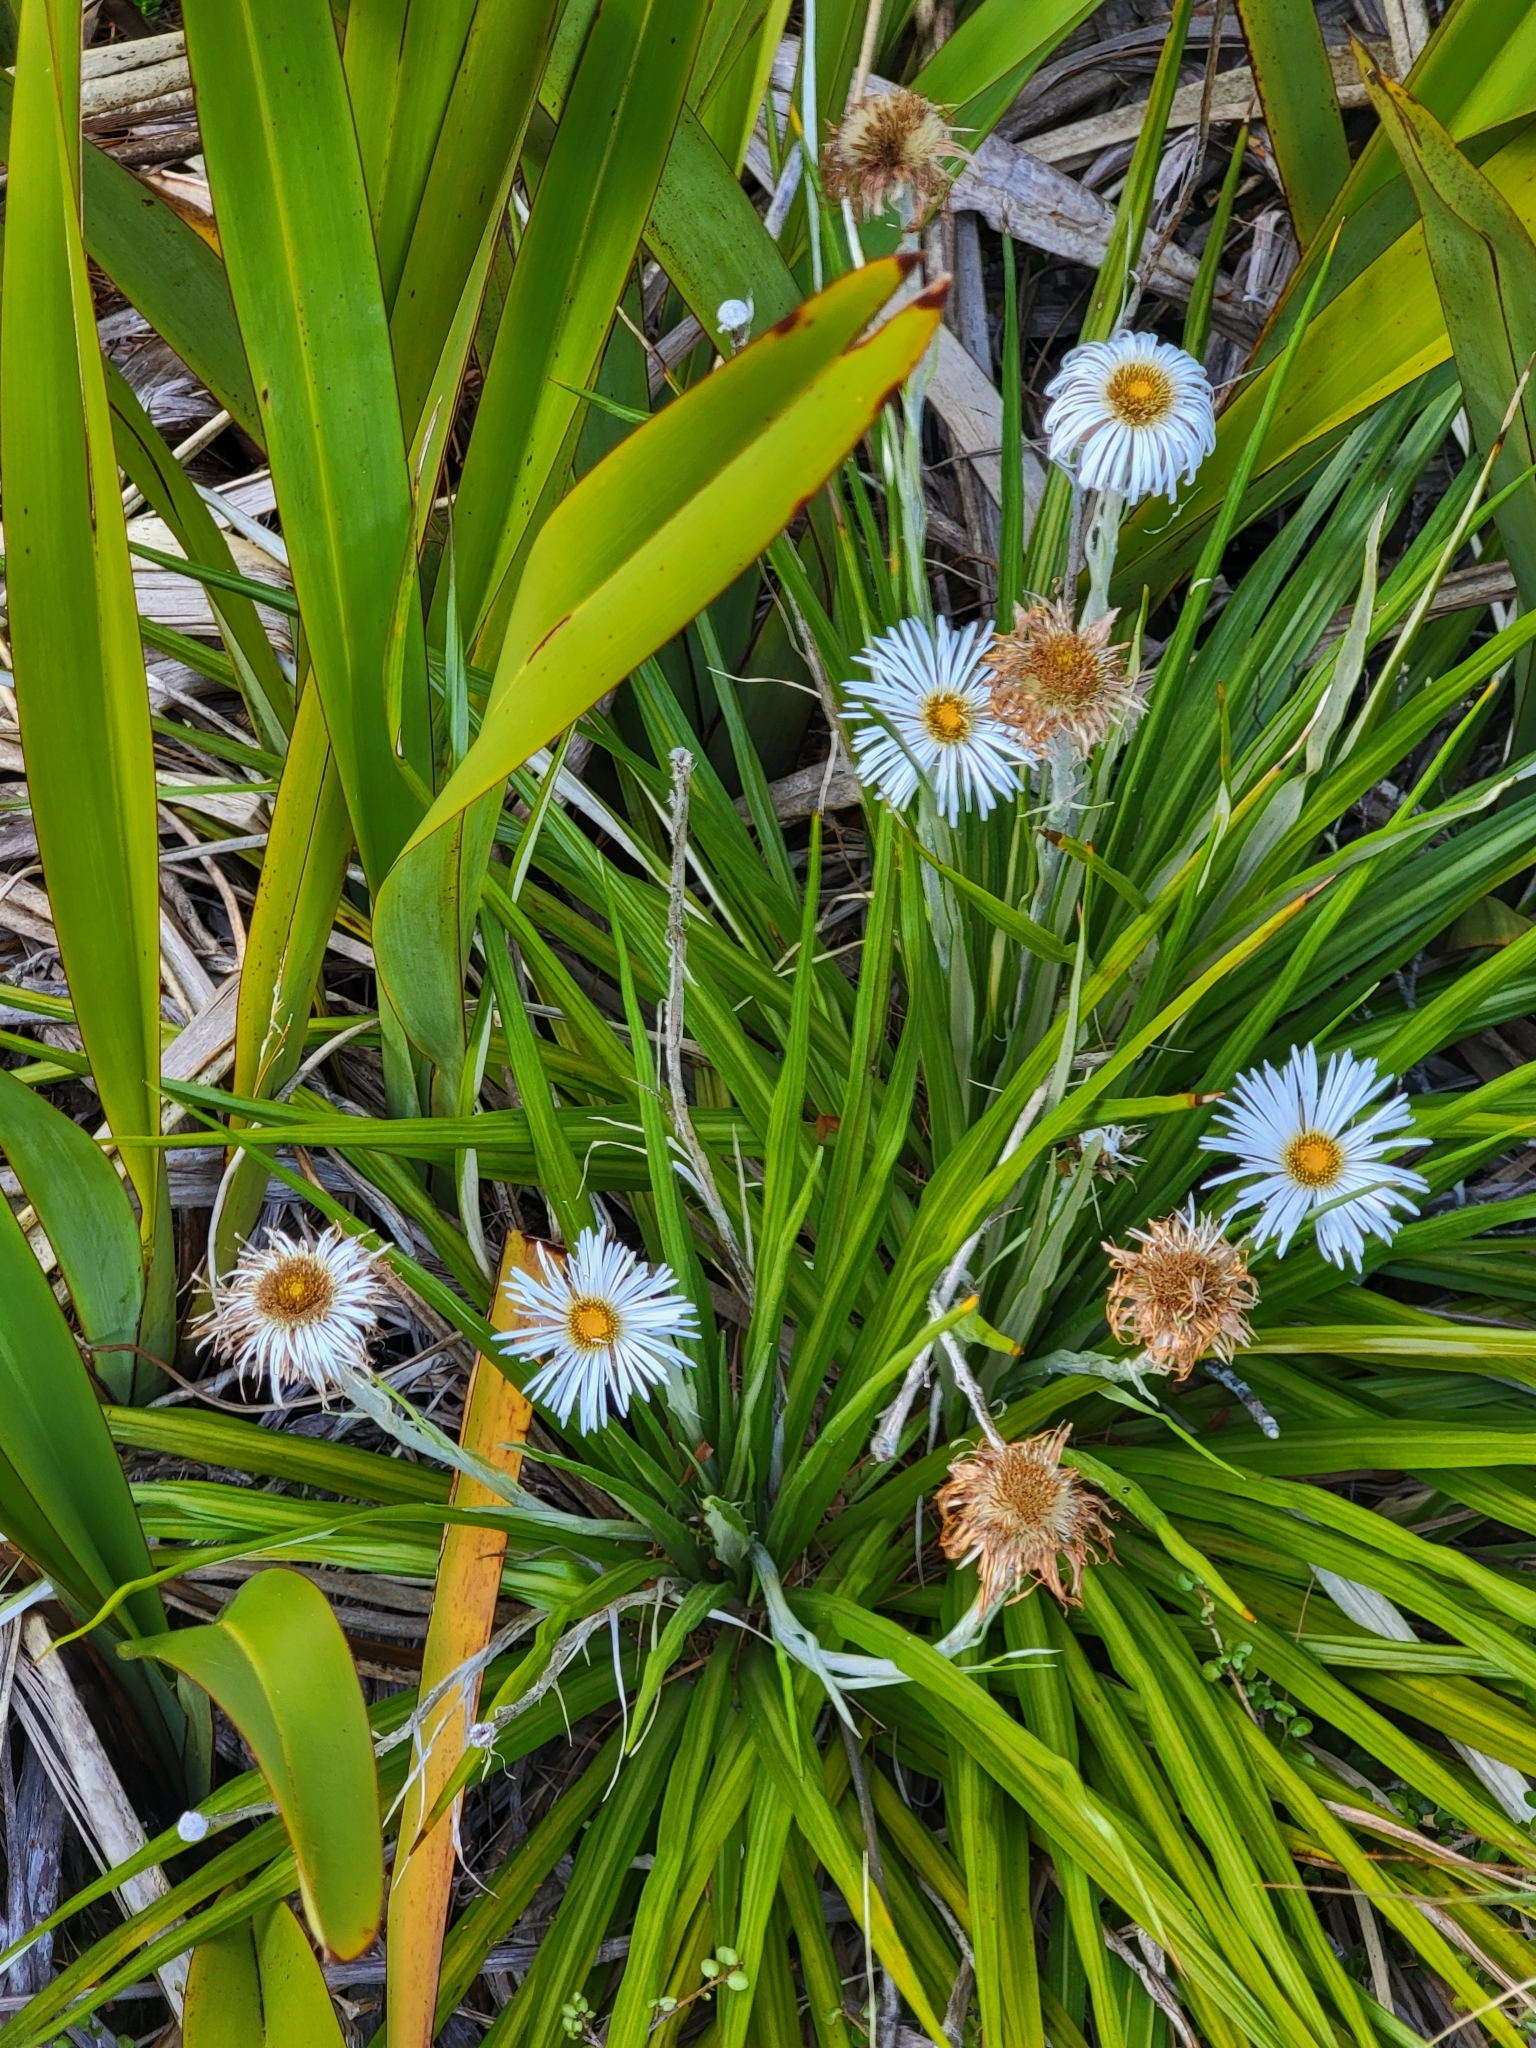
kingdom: Plantae
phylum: Tracheophyta
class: Magnoliopsida
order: Asterales
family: Asteraceae
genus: Celmisia
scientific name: Celmisia petriei
